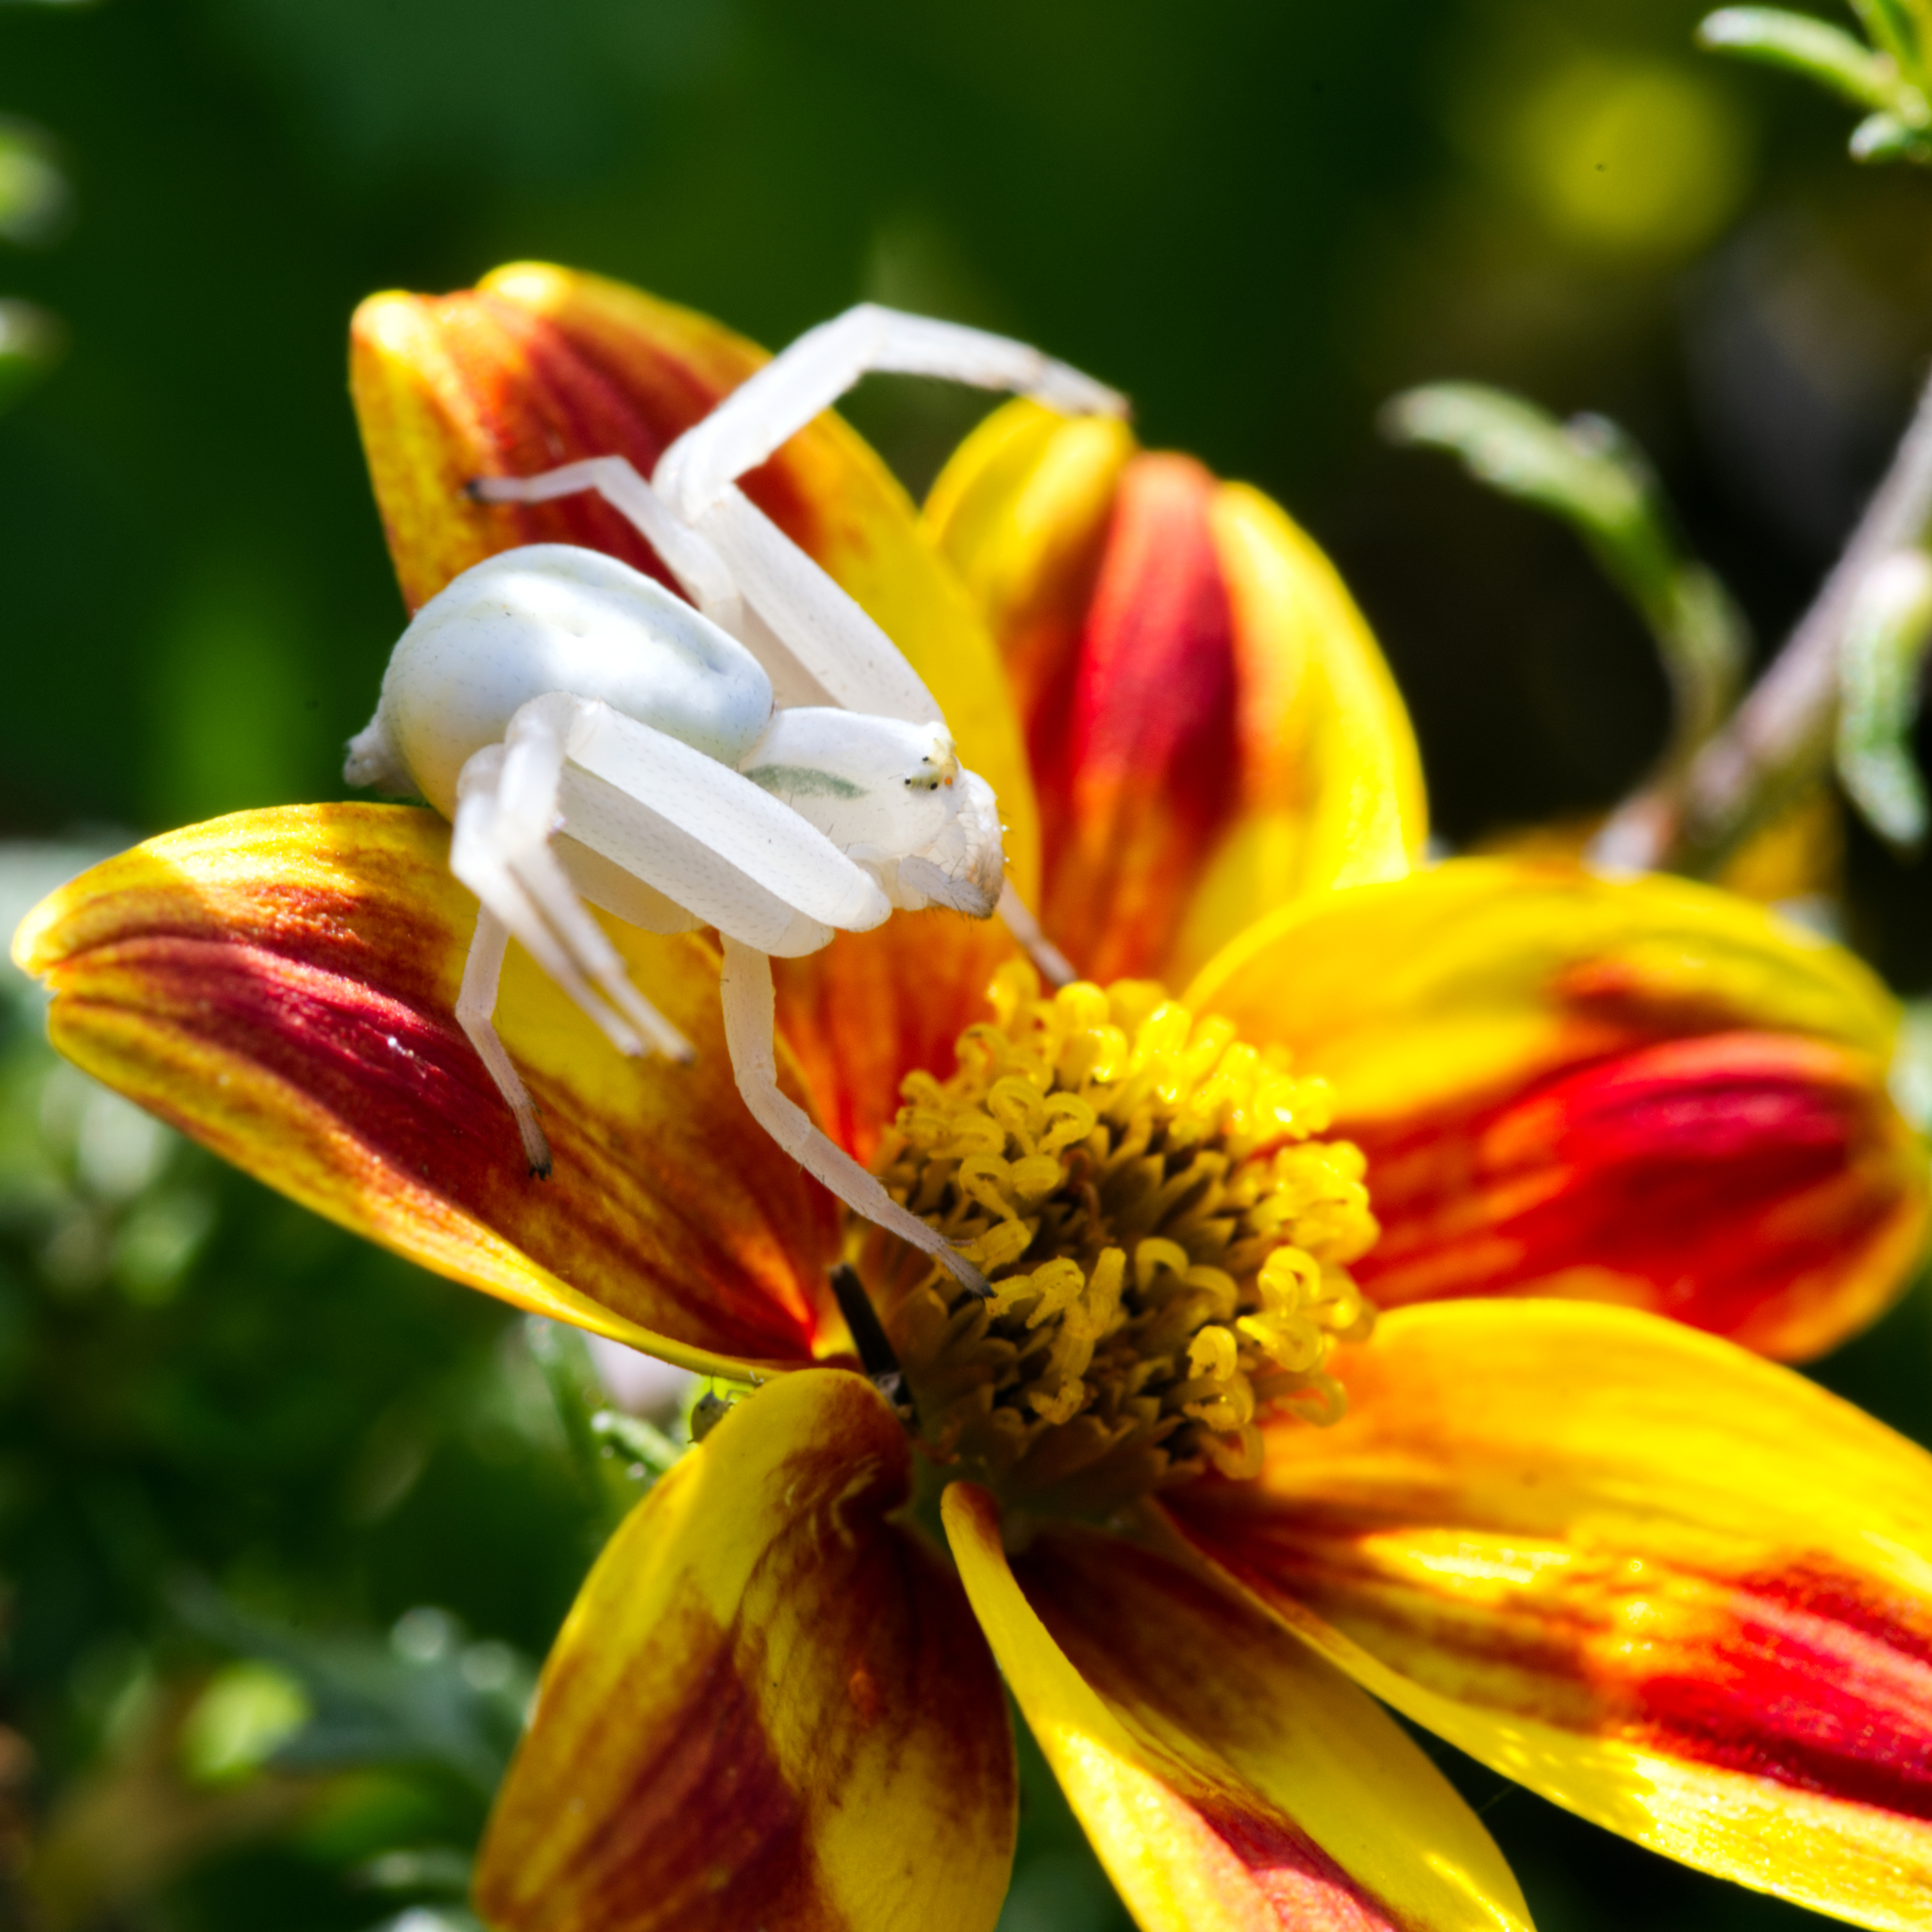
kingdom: Animalia
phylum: Arthropoda
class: Arachnida
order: Araneae
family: Thomisidae
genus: Misumena
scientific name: Misumena vatia
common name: Goldenrod crab spider
